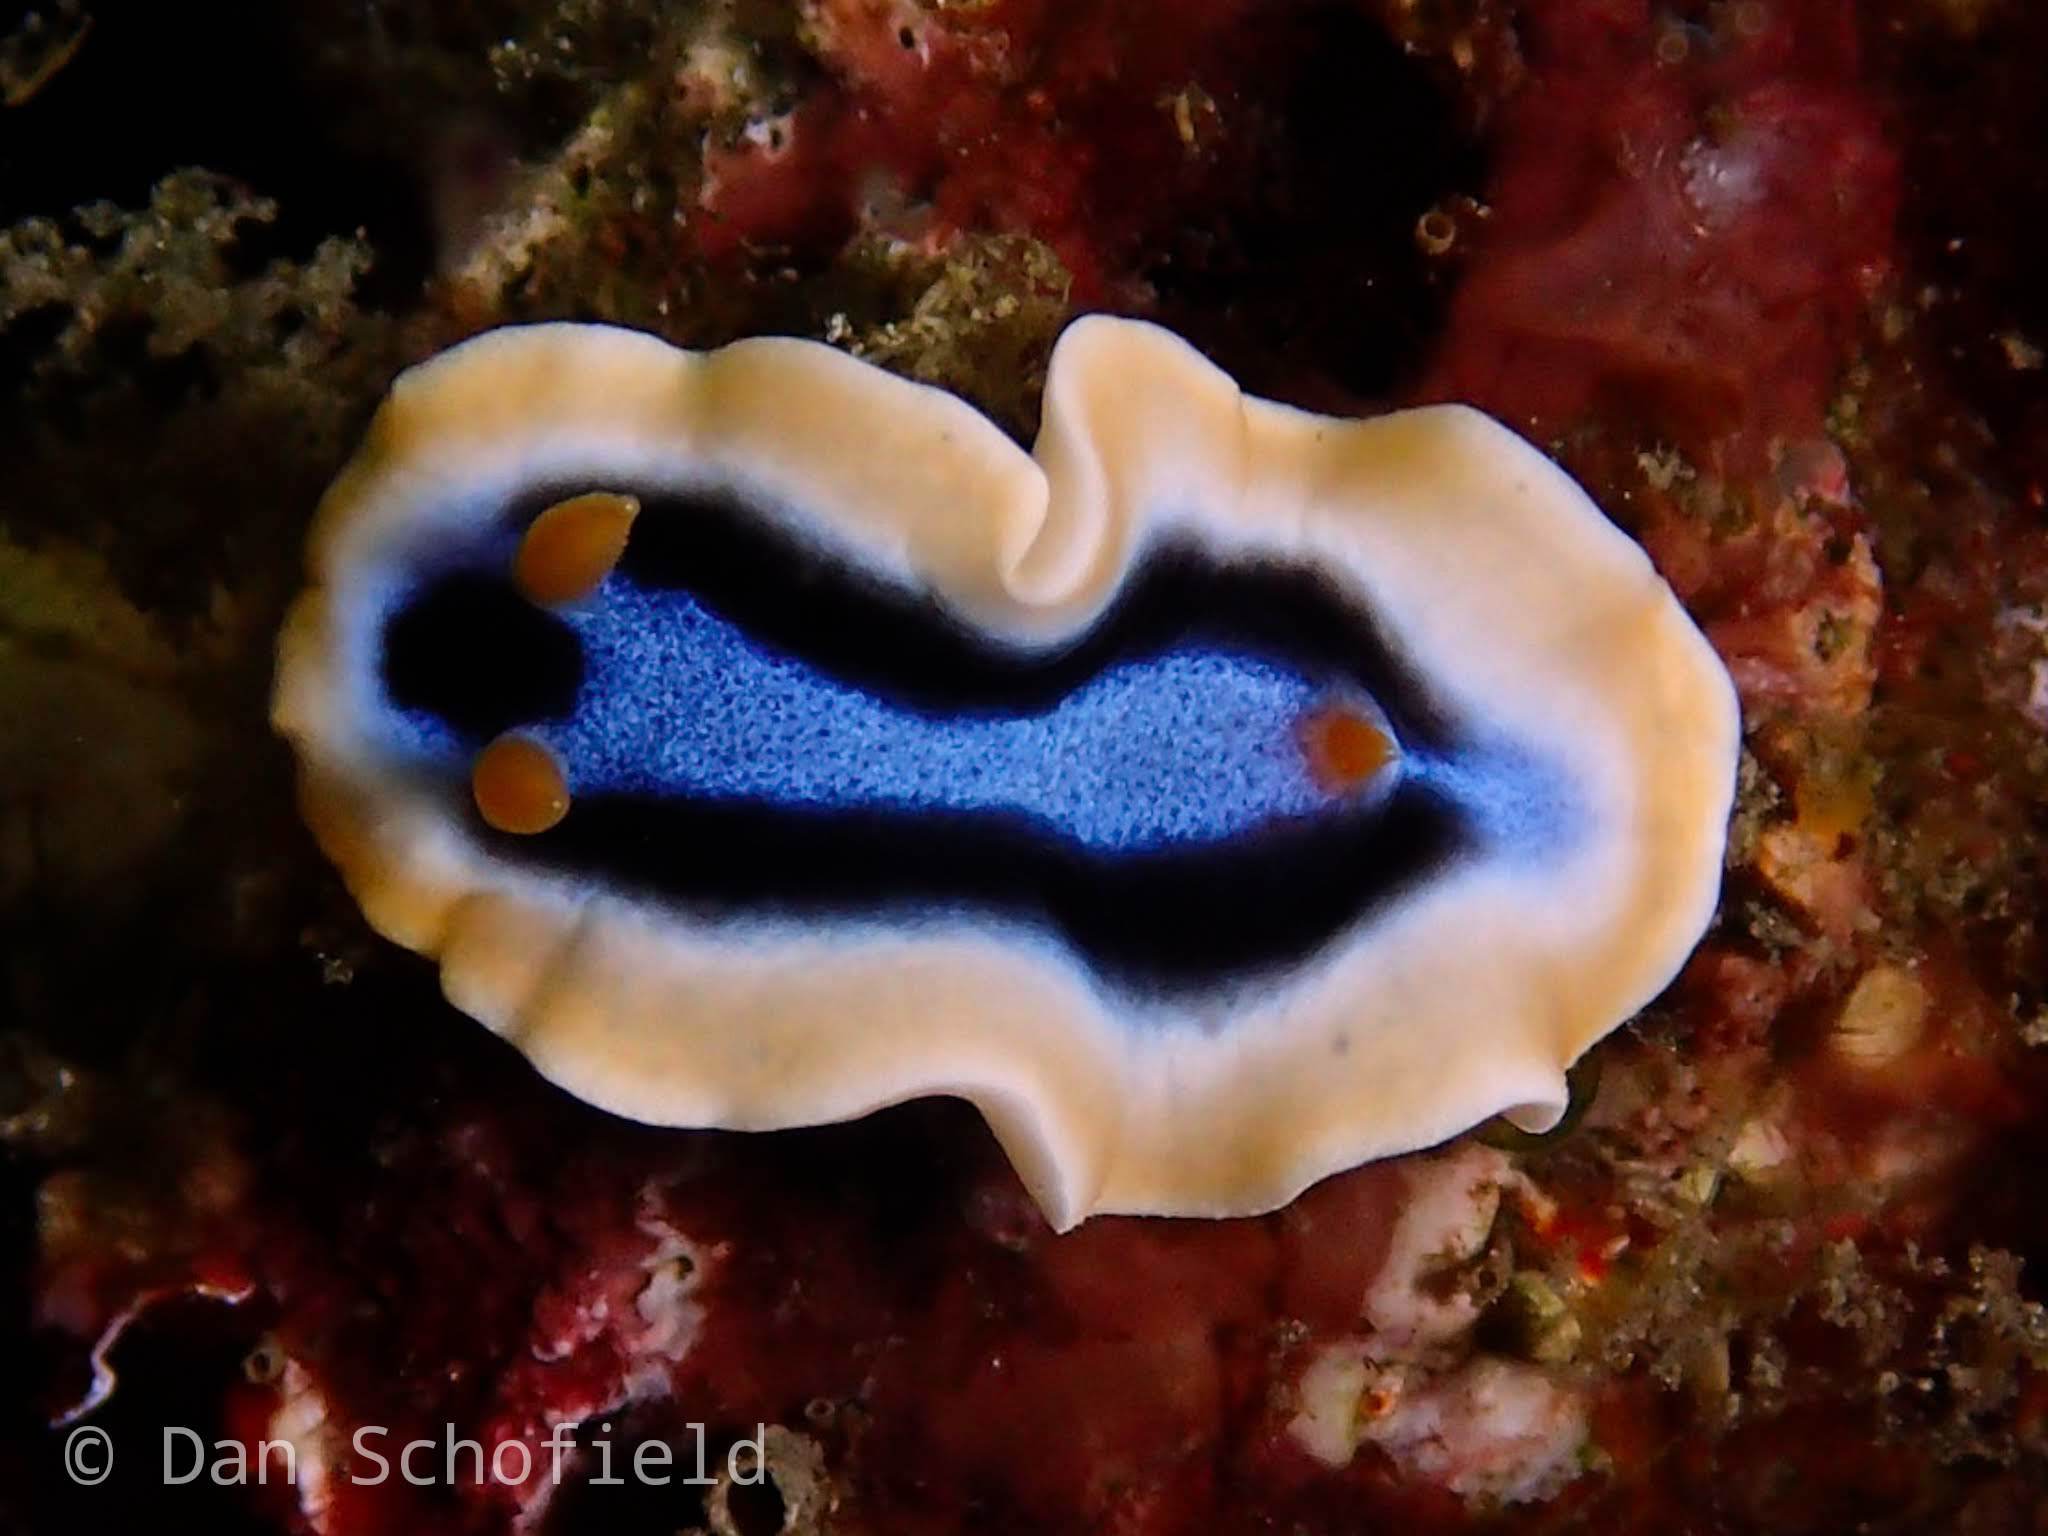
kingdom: Animalia
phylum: Mollusca
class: Gastropoda
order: Nudibranchia
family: Chromodorididae
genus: Chromodoris
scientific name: Chromodoris annae
